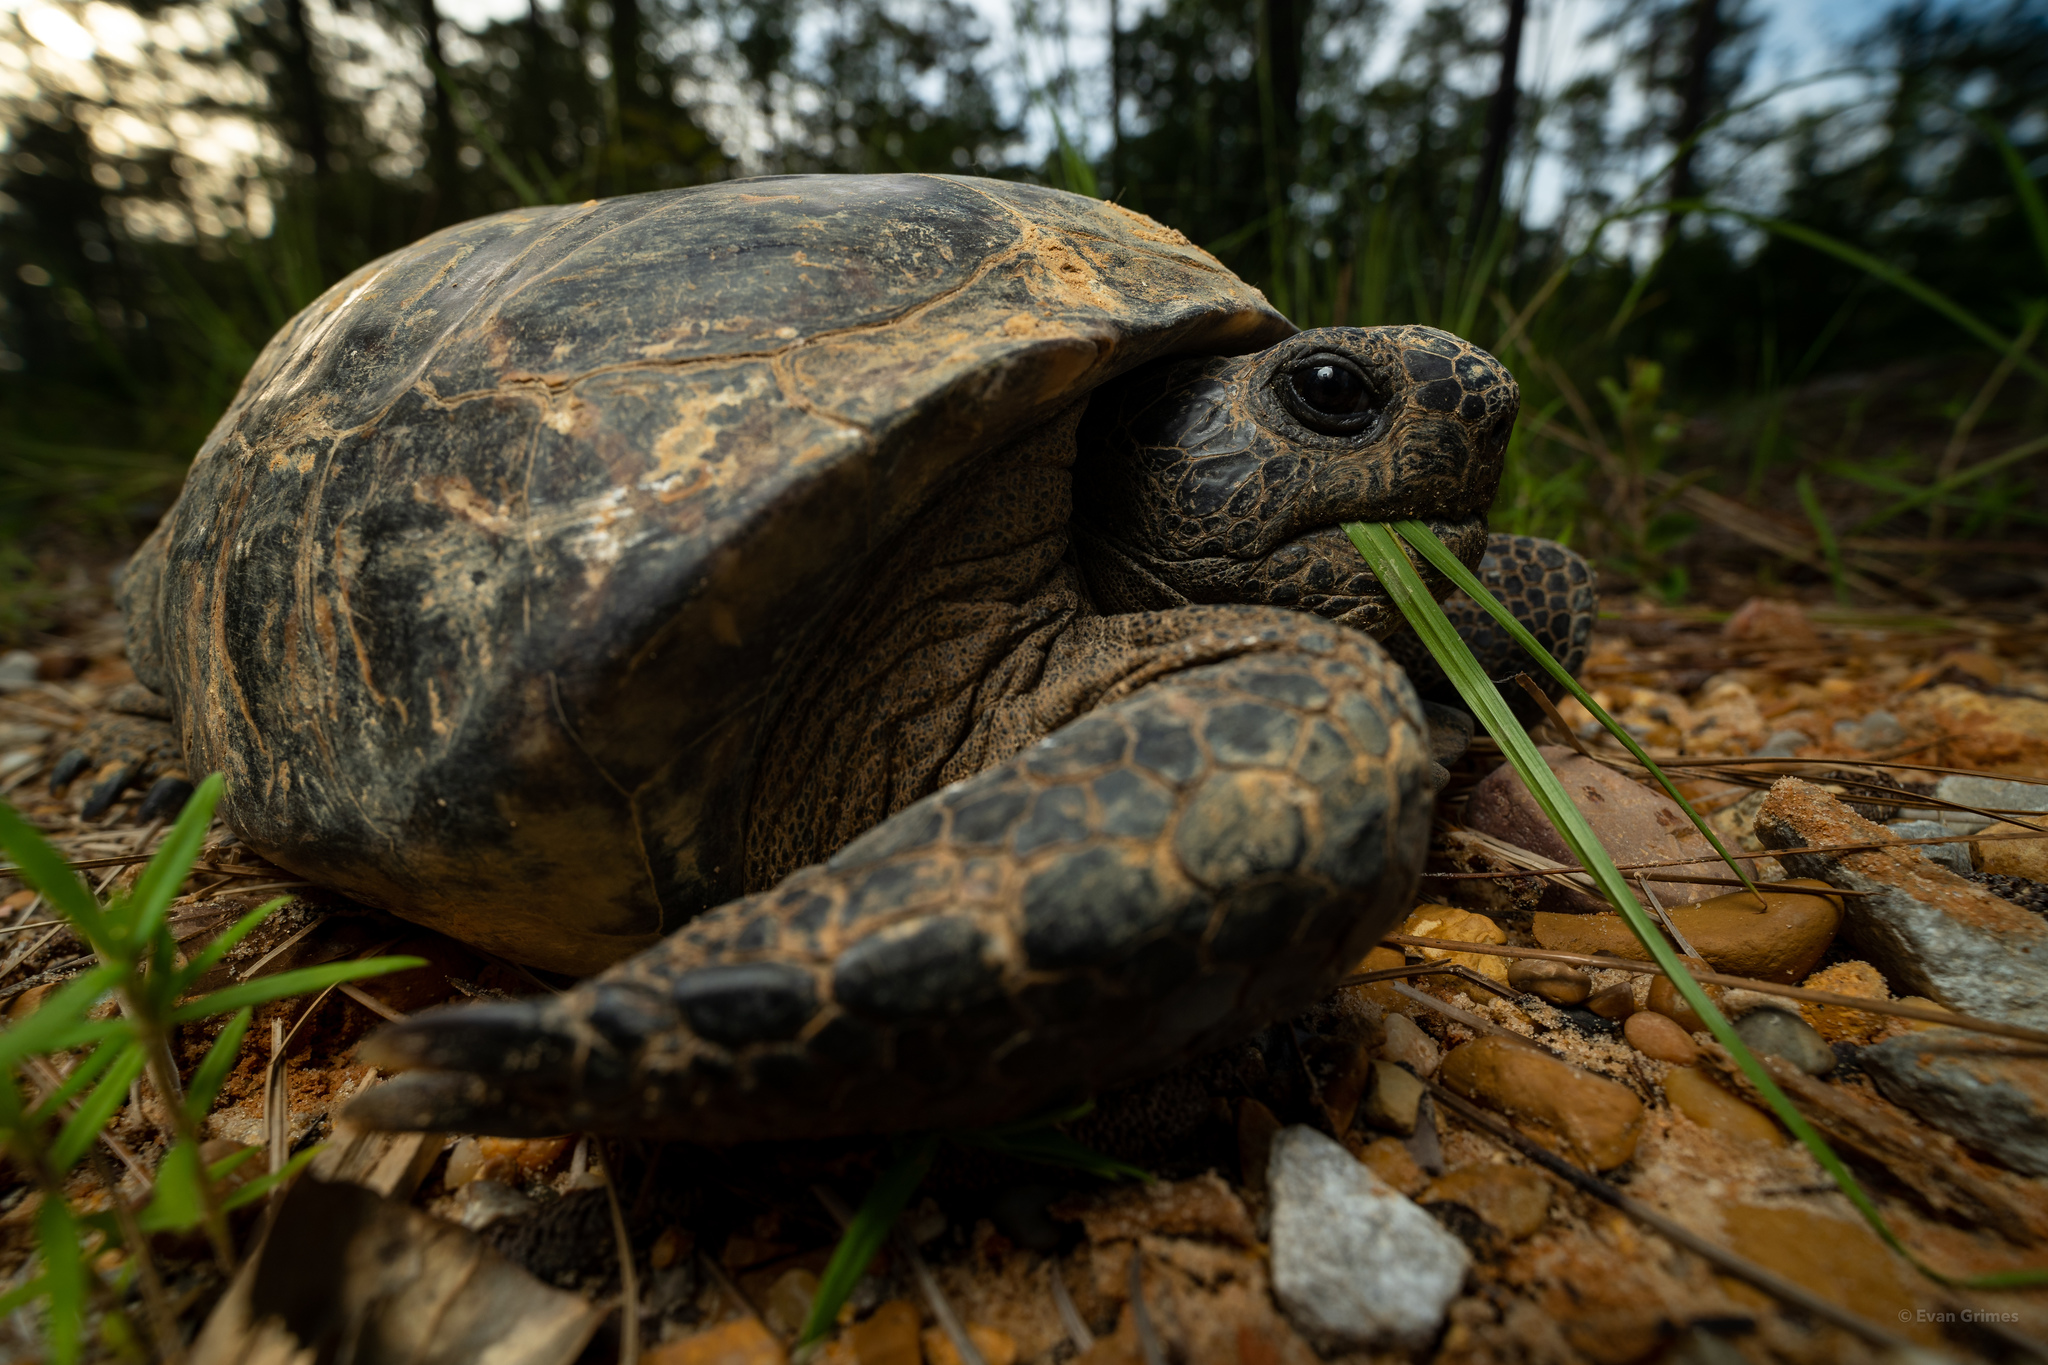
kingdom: Animalia
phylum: Chordata
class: Testudines
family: Testudinidae
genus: Gopherus
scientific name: Gopherus polyphemus
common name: Florida gopher tortoise
